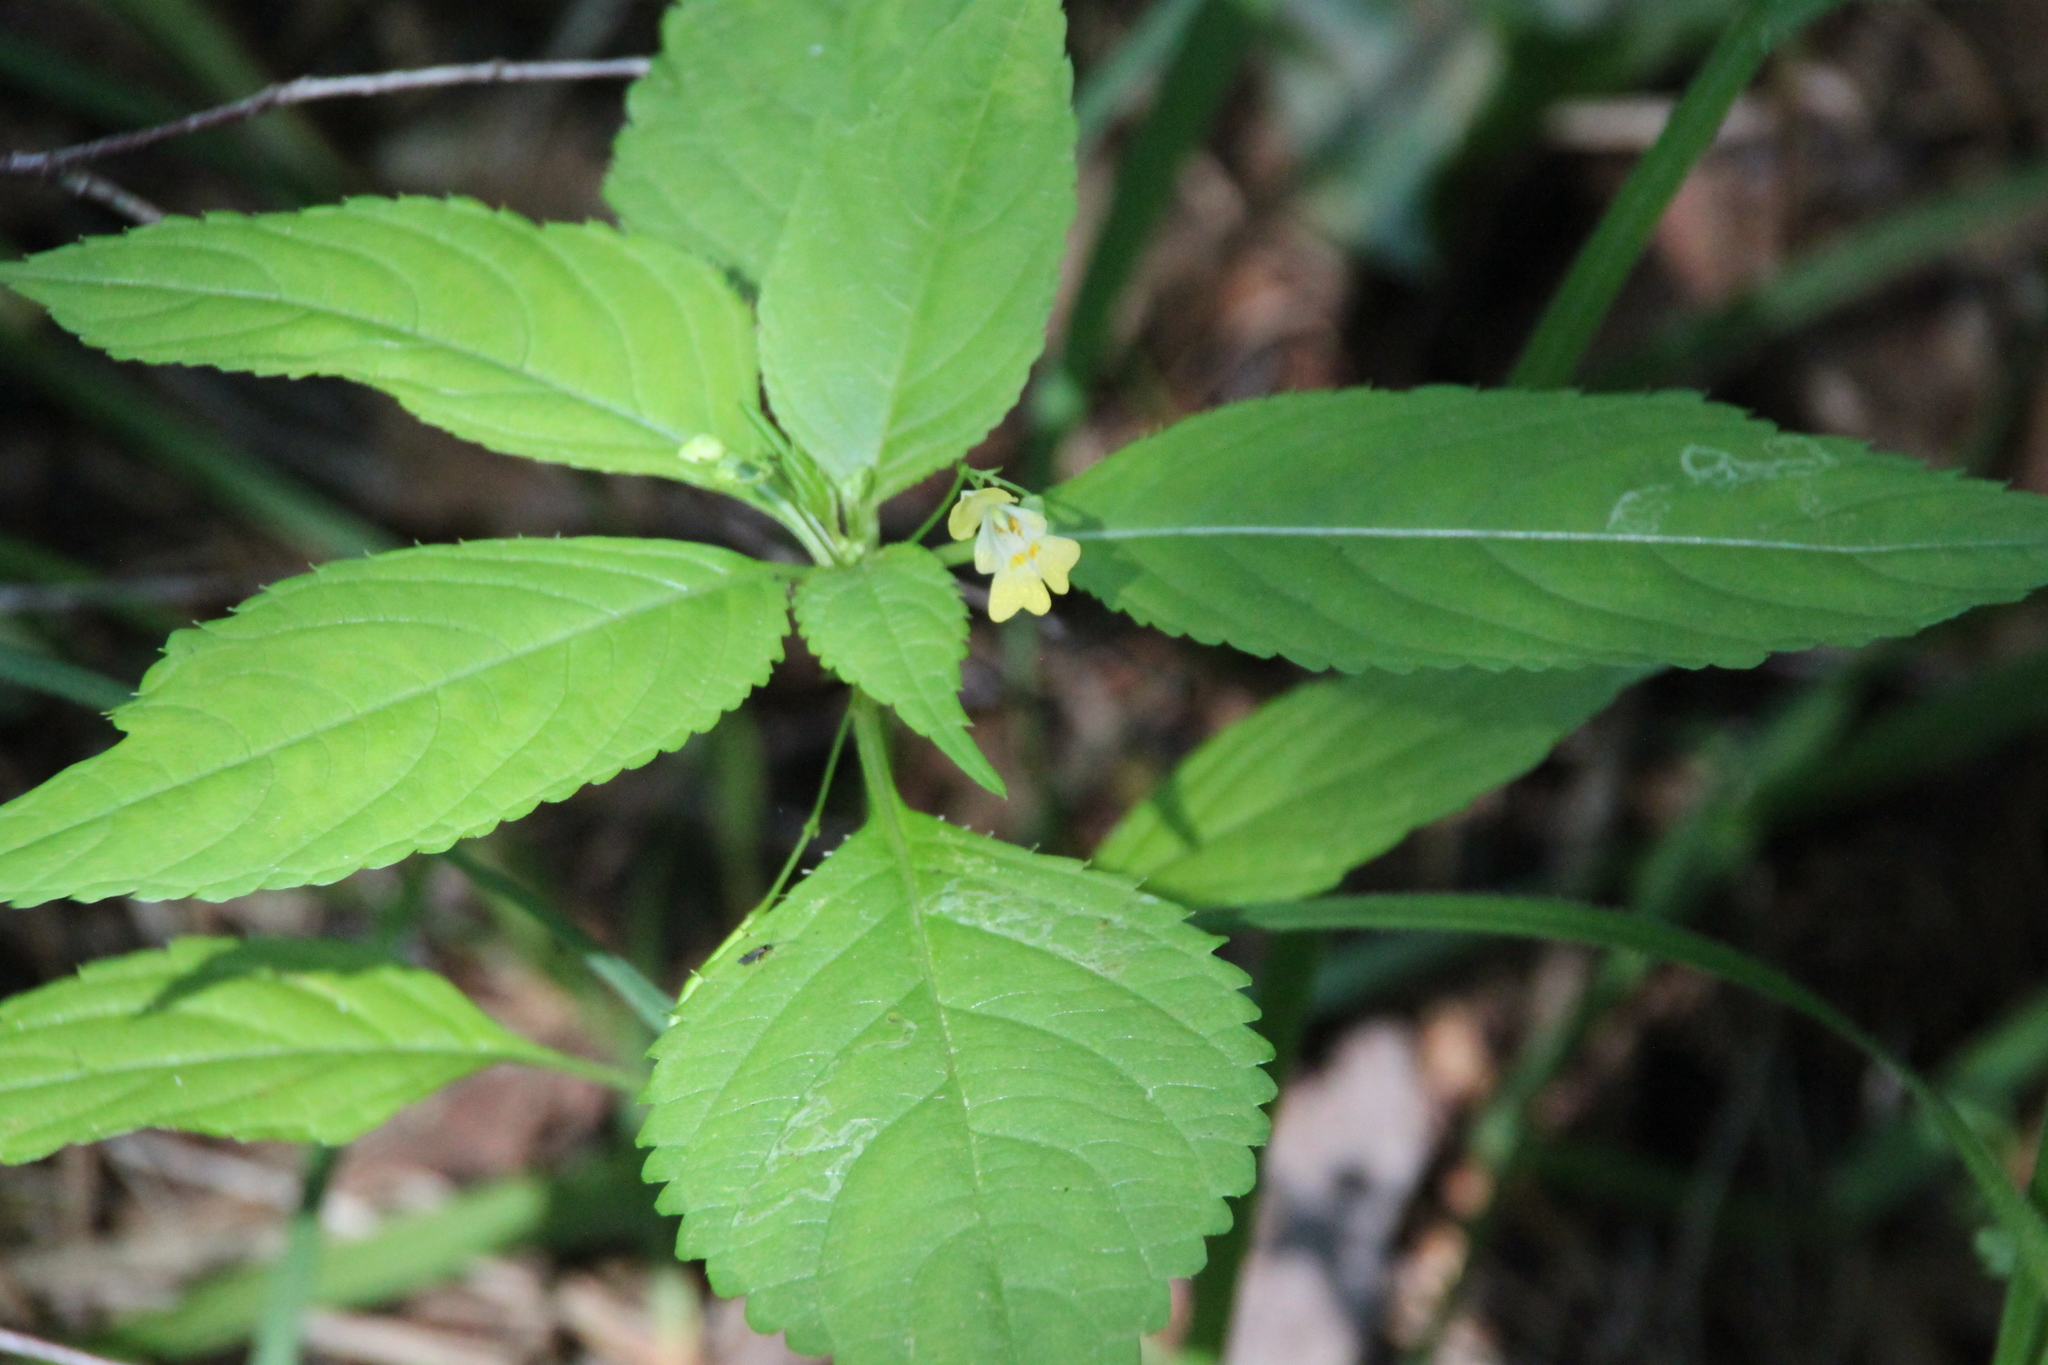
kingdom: Plantae
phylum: Tracheophyta
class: Magnoliopsida
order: Ericales
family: Balsaminaceae
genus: Impatiens
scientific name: Impatiens parviflora
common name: Small balsam
